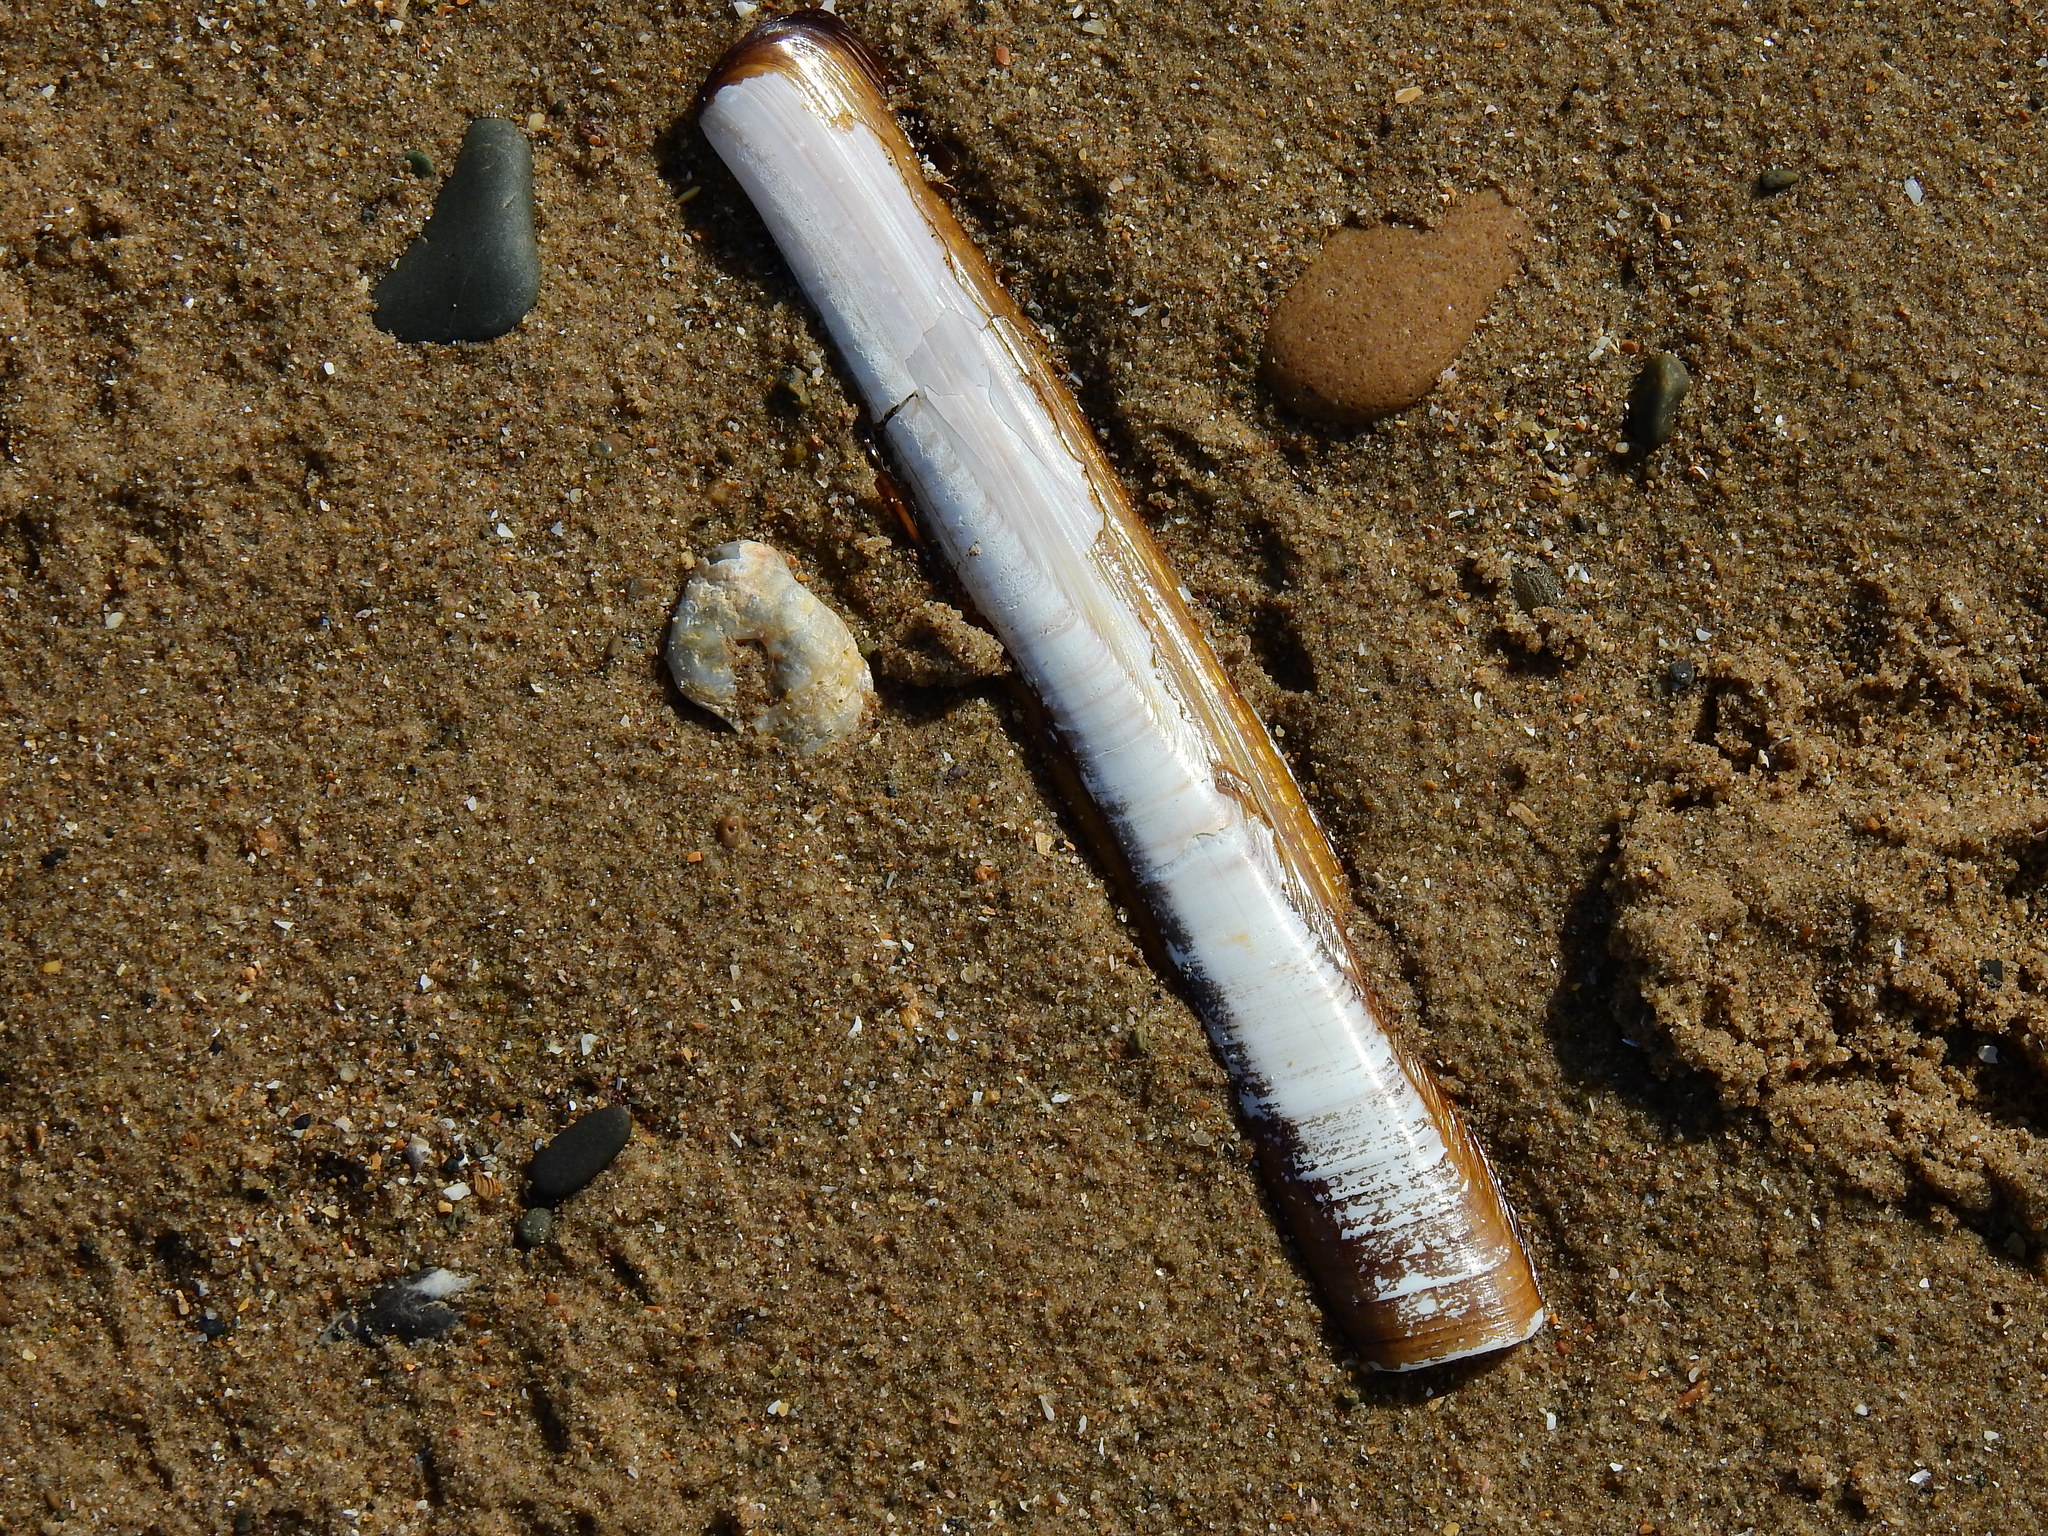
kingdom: Animalia
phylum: Mollusca
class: Bivalvia
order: Adapedonta
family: Pharidae
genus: Ensis
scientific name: Ensis siliqua
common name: Pod razor shell
